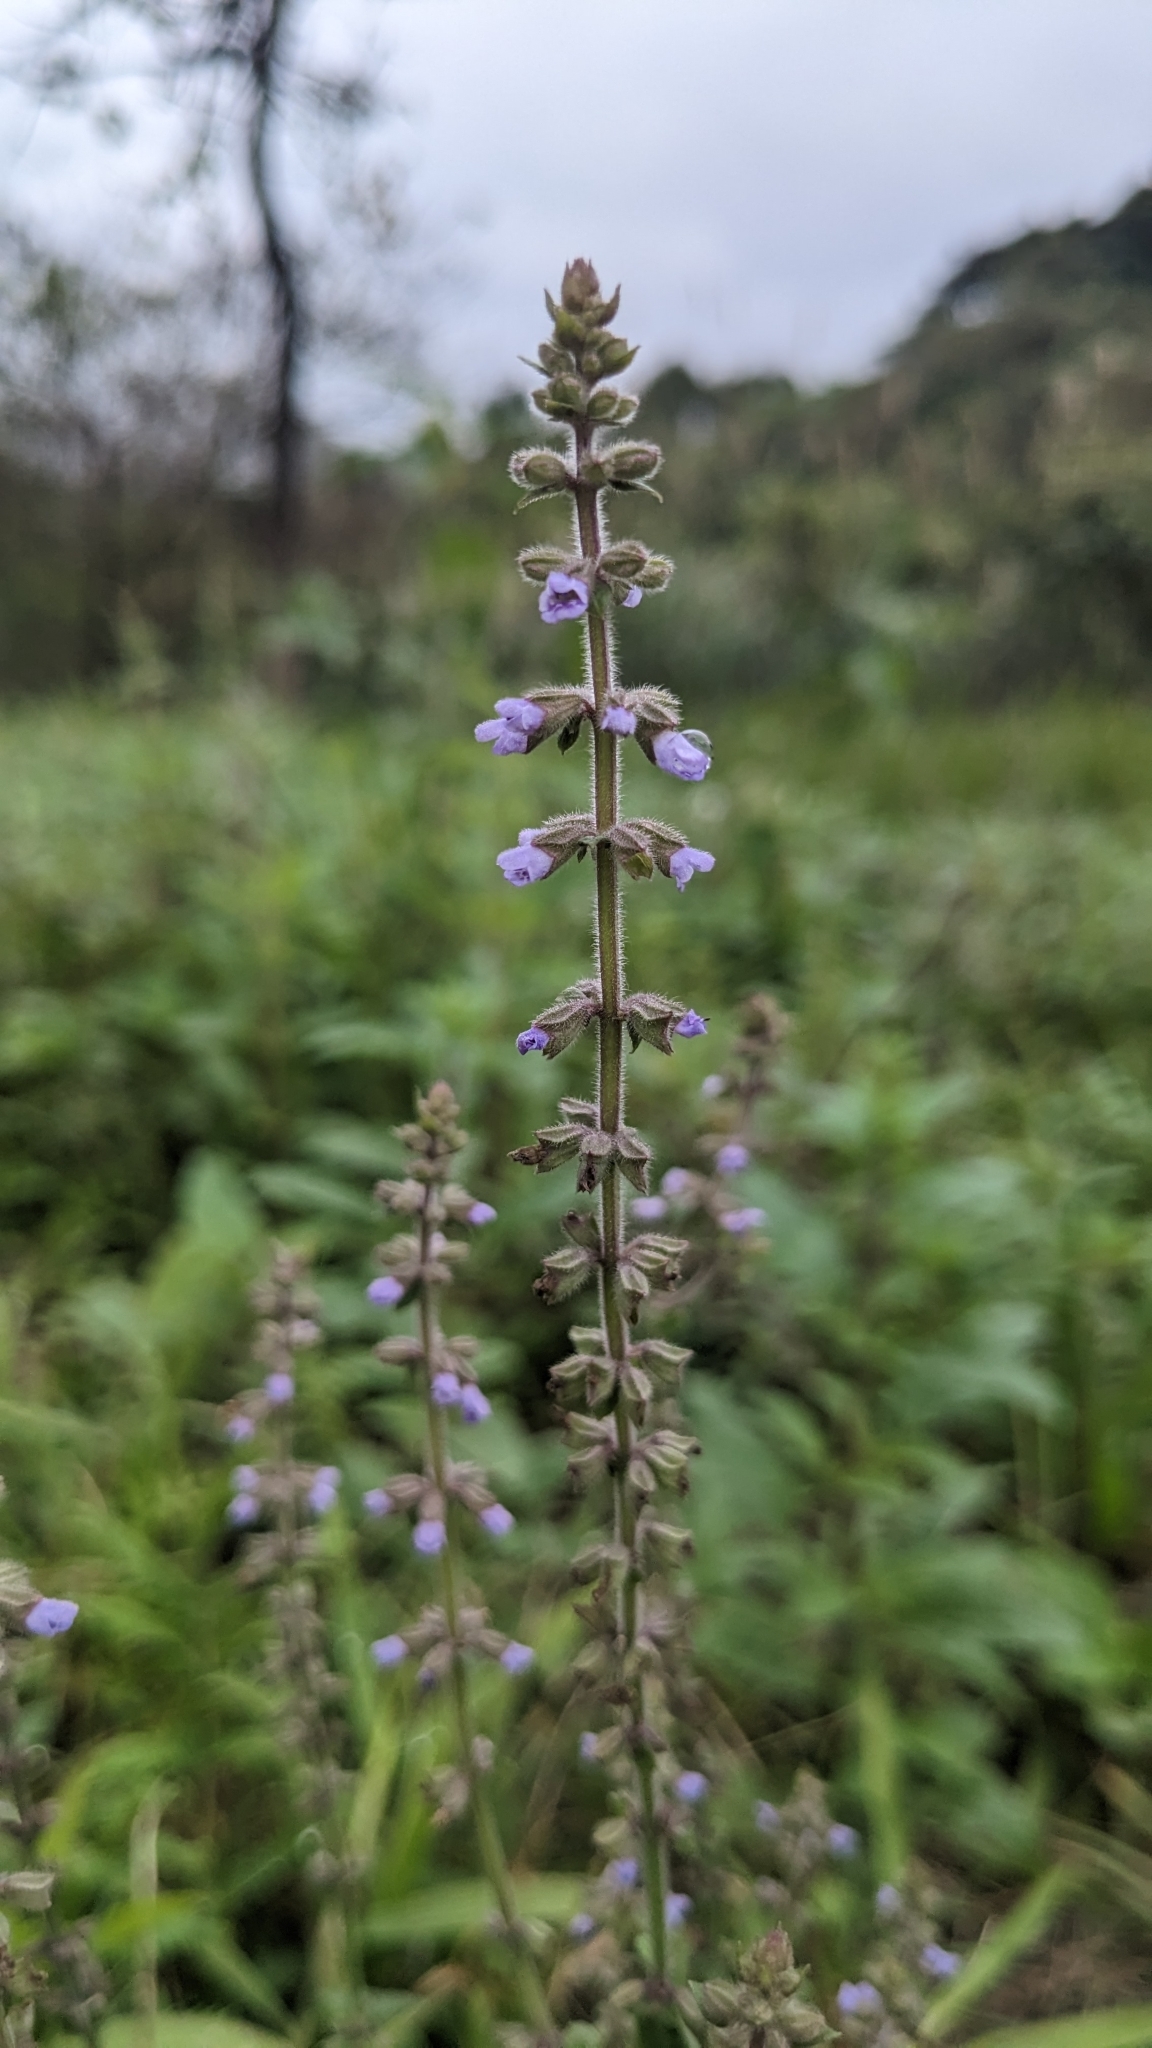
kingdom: Plantae
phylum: Tracheophyta
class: Magnoliopsida
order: Lamiales
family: Lamiaceae
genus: Salvia
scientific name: Salvia plebeia
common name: Australian sage
